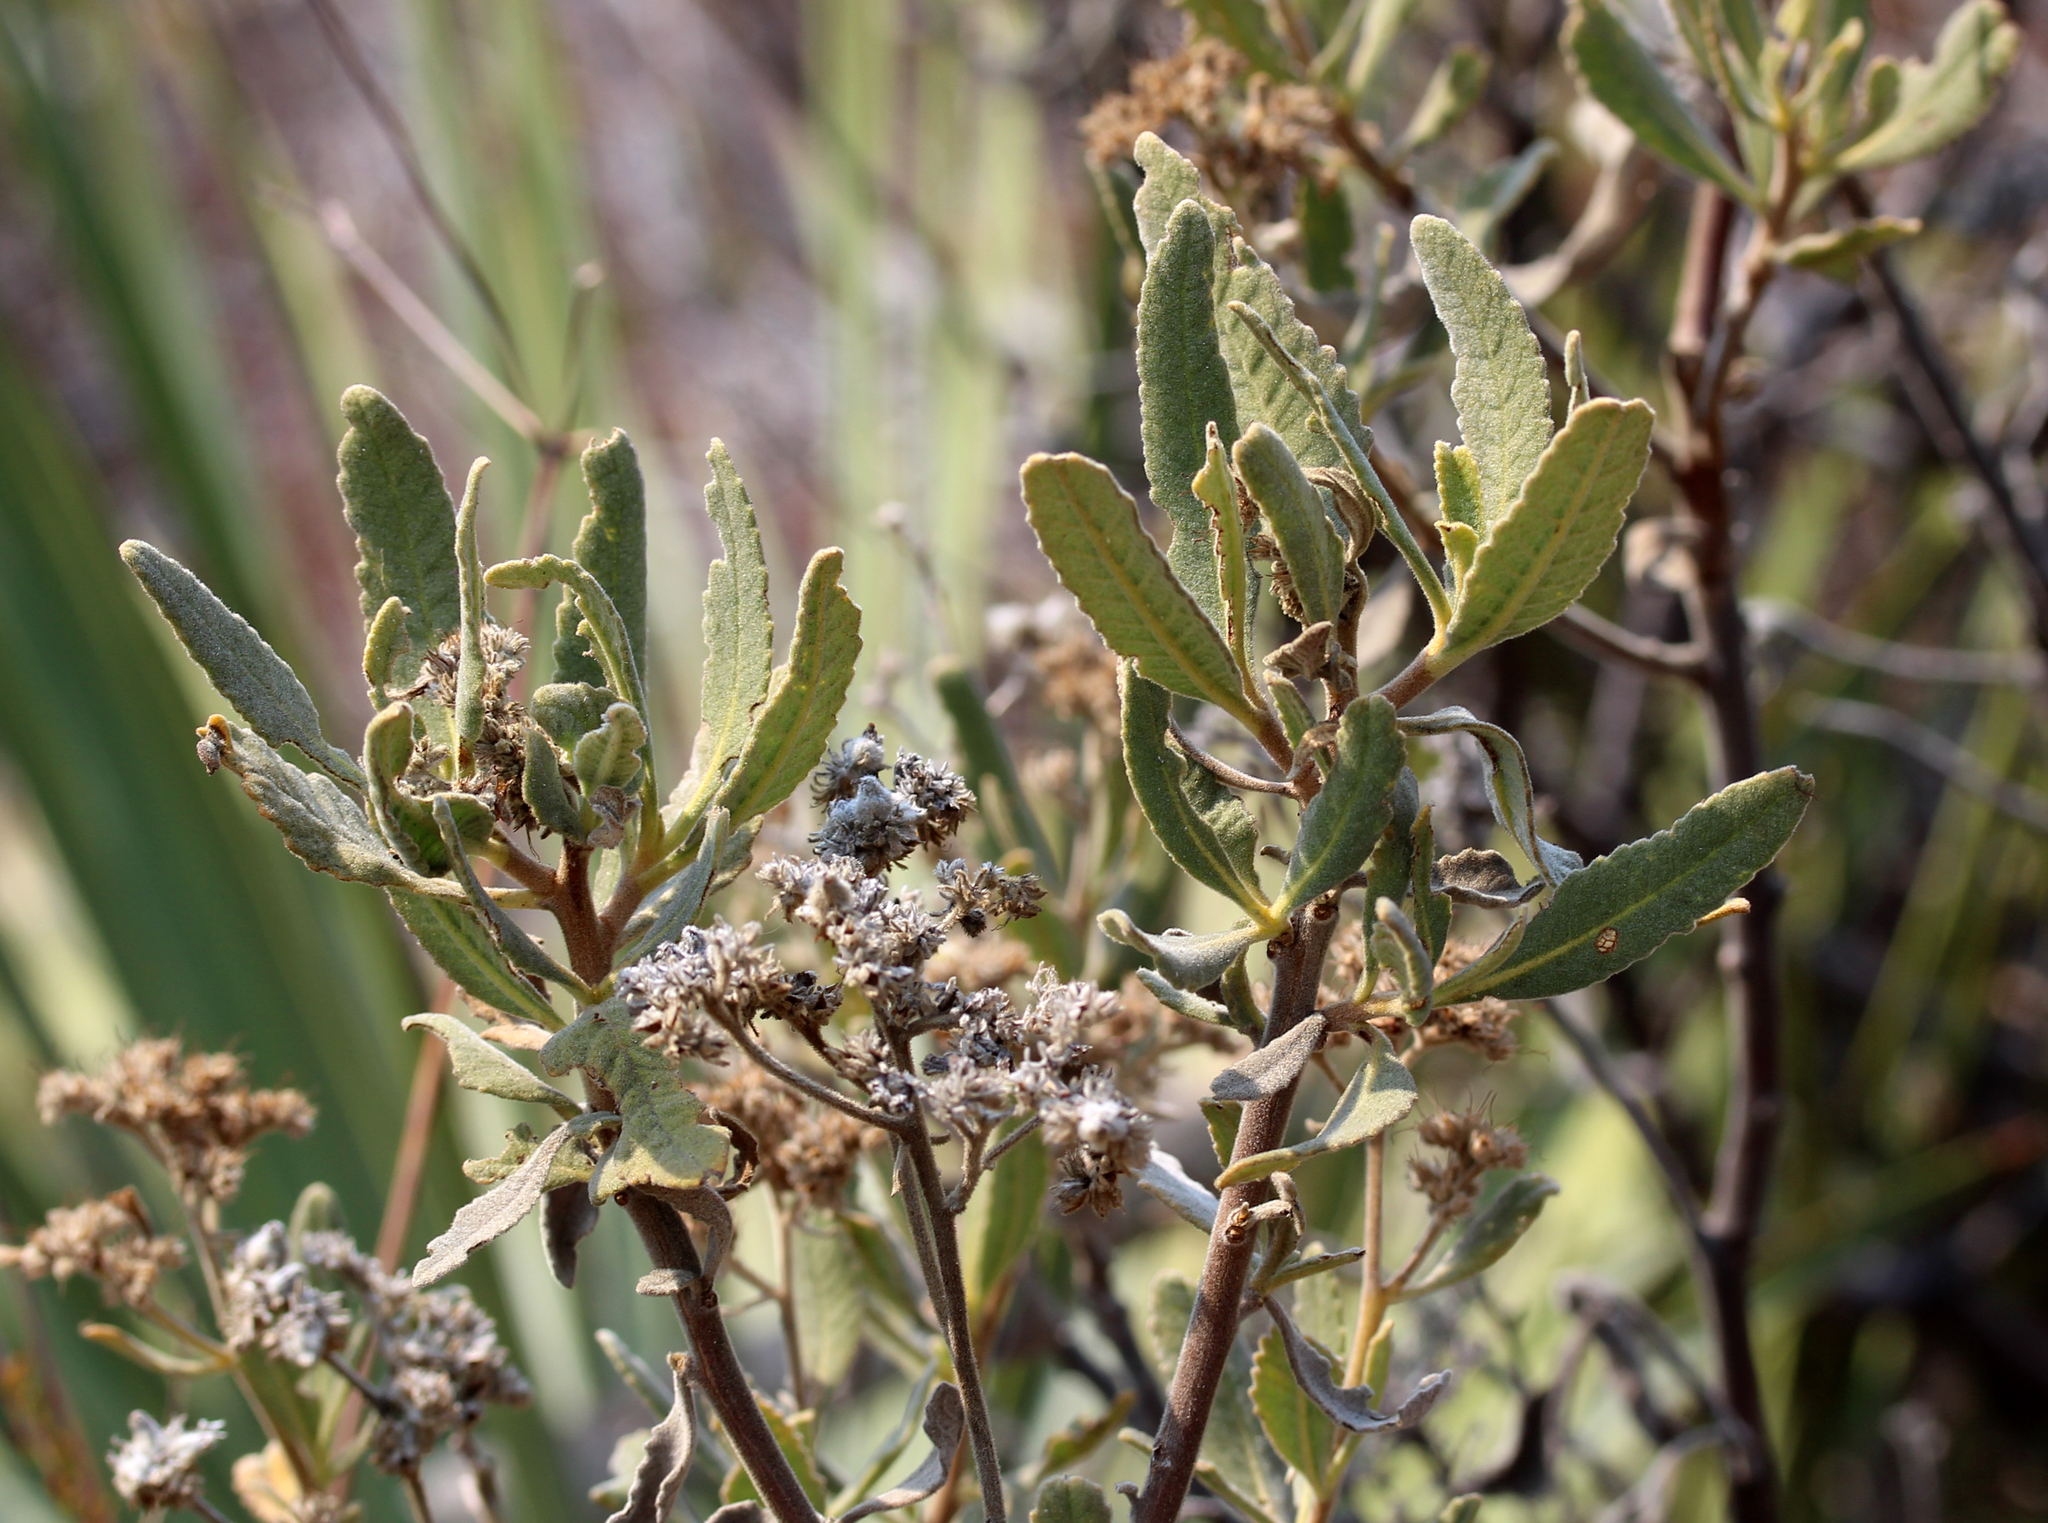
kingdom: Plantae
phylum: Tracheophyta
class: Magnoliopsida
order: Boraginales
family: Namaceae
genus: Eriodictyon
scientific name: Eriodictyon crassifolium
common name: Thick-leaf yerba-santa
